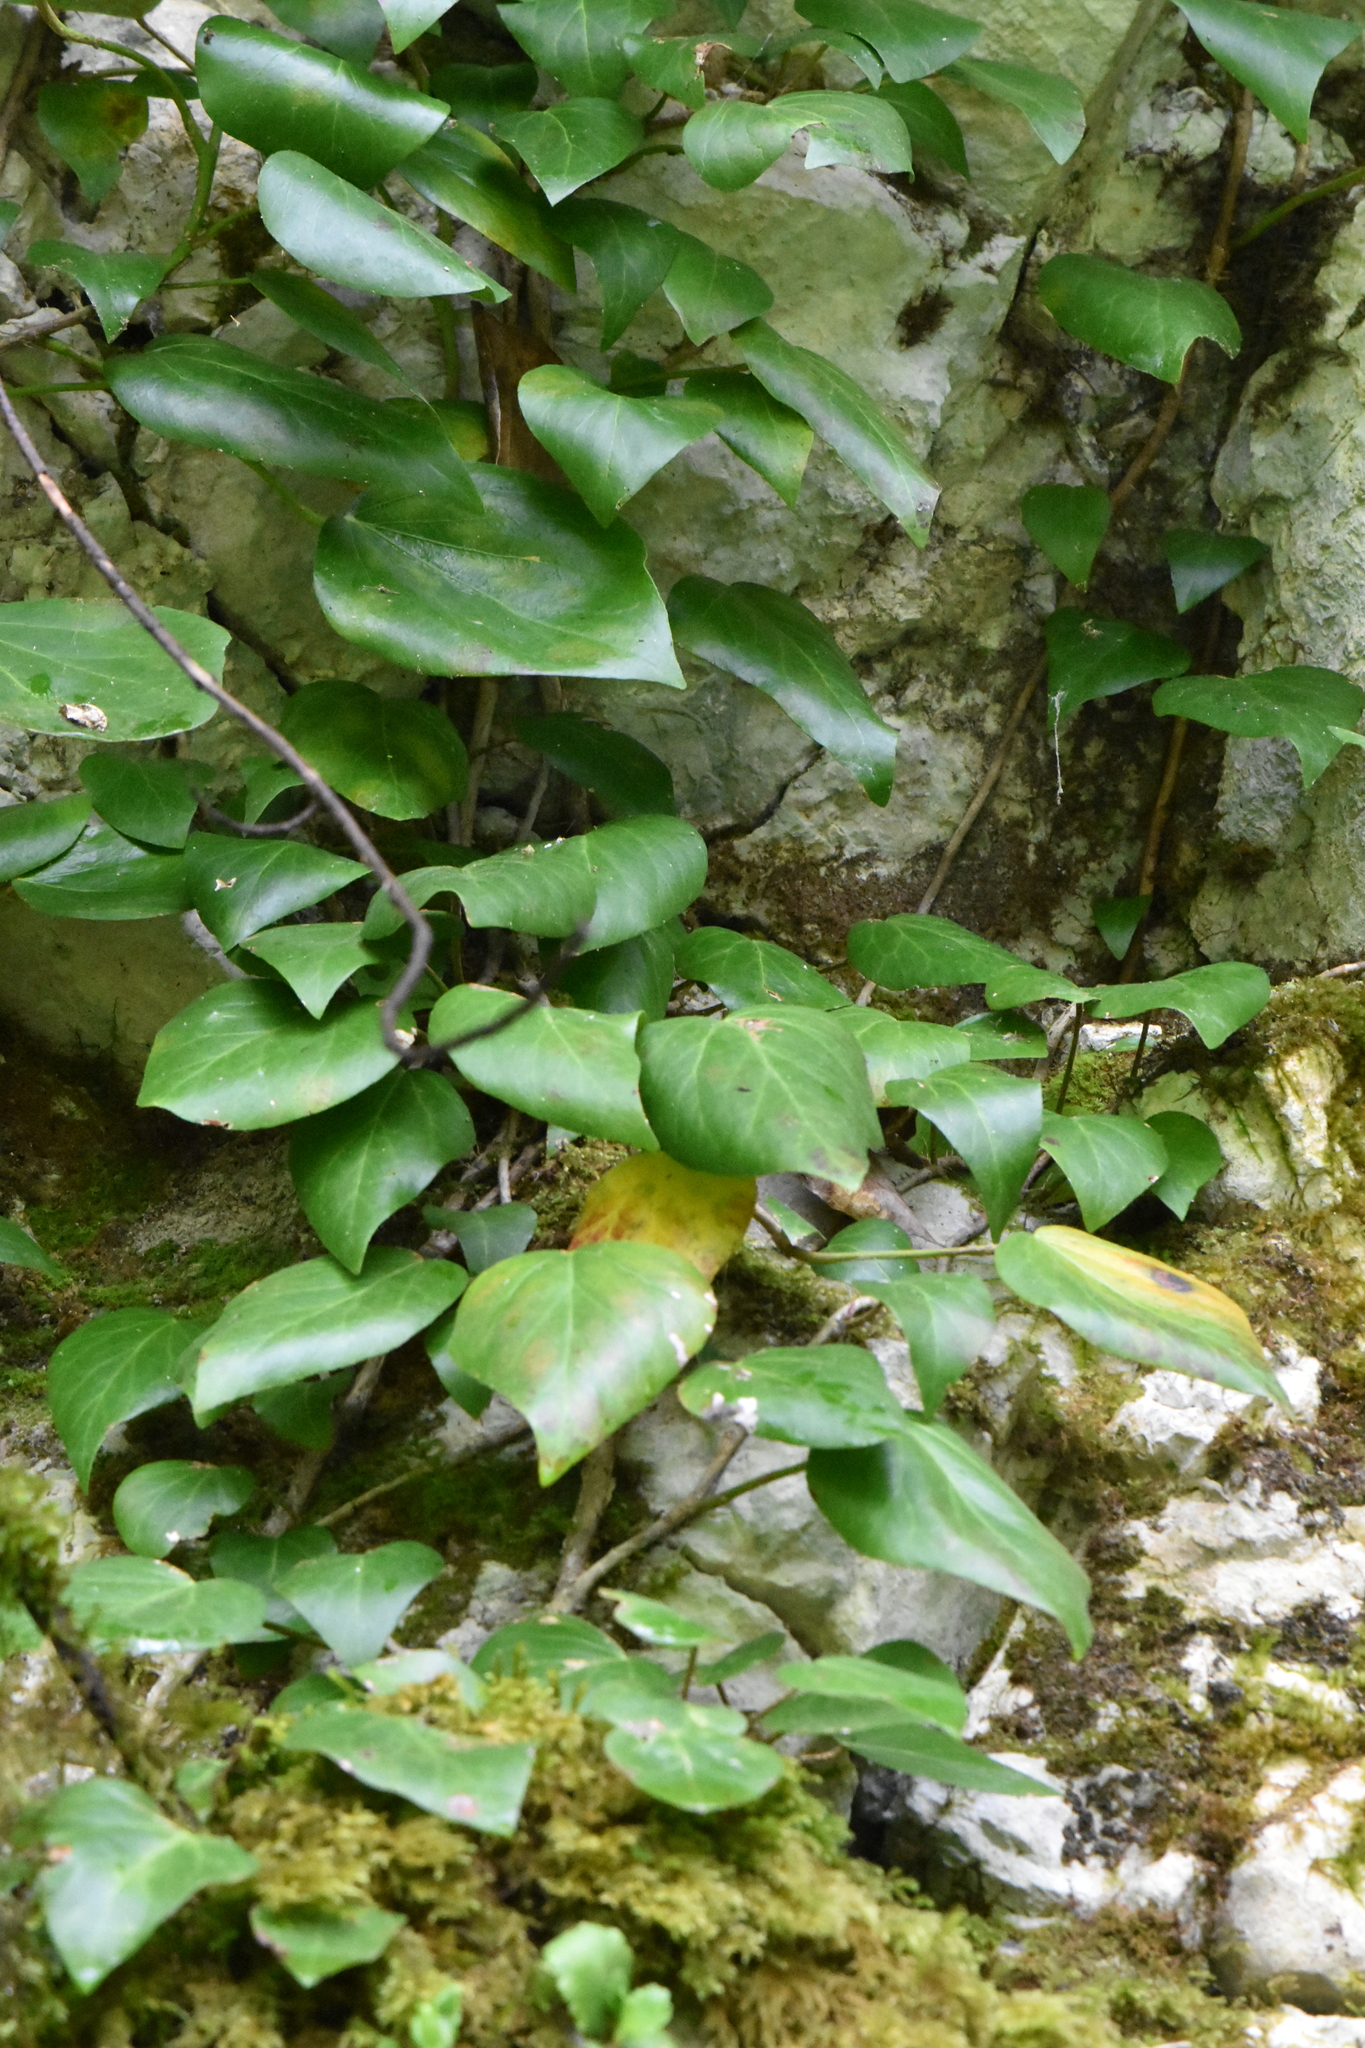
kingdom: Plantae
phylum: Tracheophyta
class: Magnoliopsida
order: Apiales
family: Araliaceae
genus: Hedera
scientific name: Hedera colchica
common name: Persian ivy
